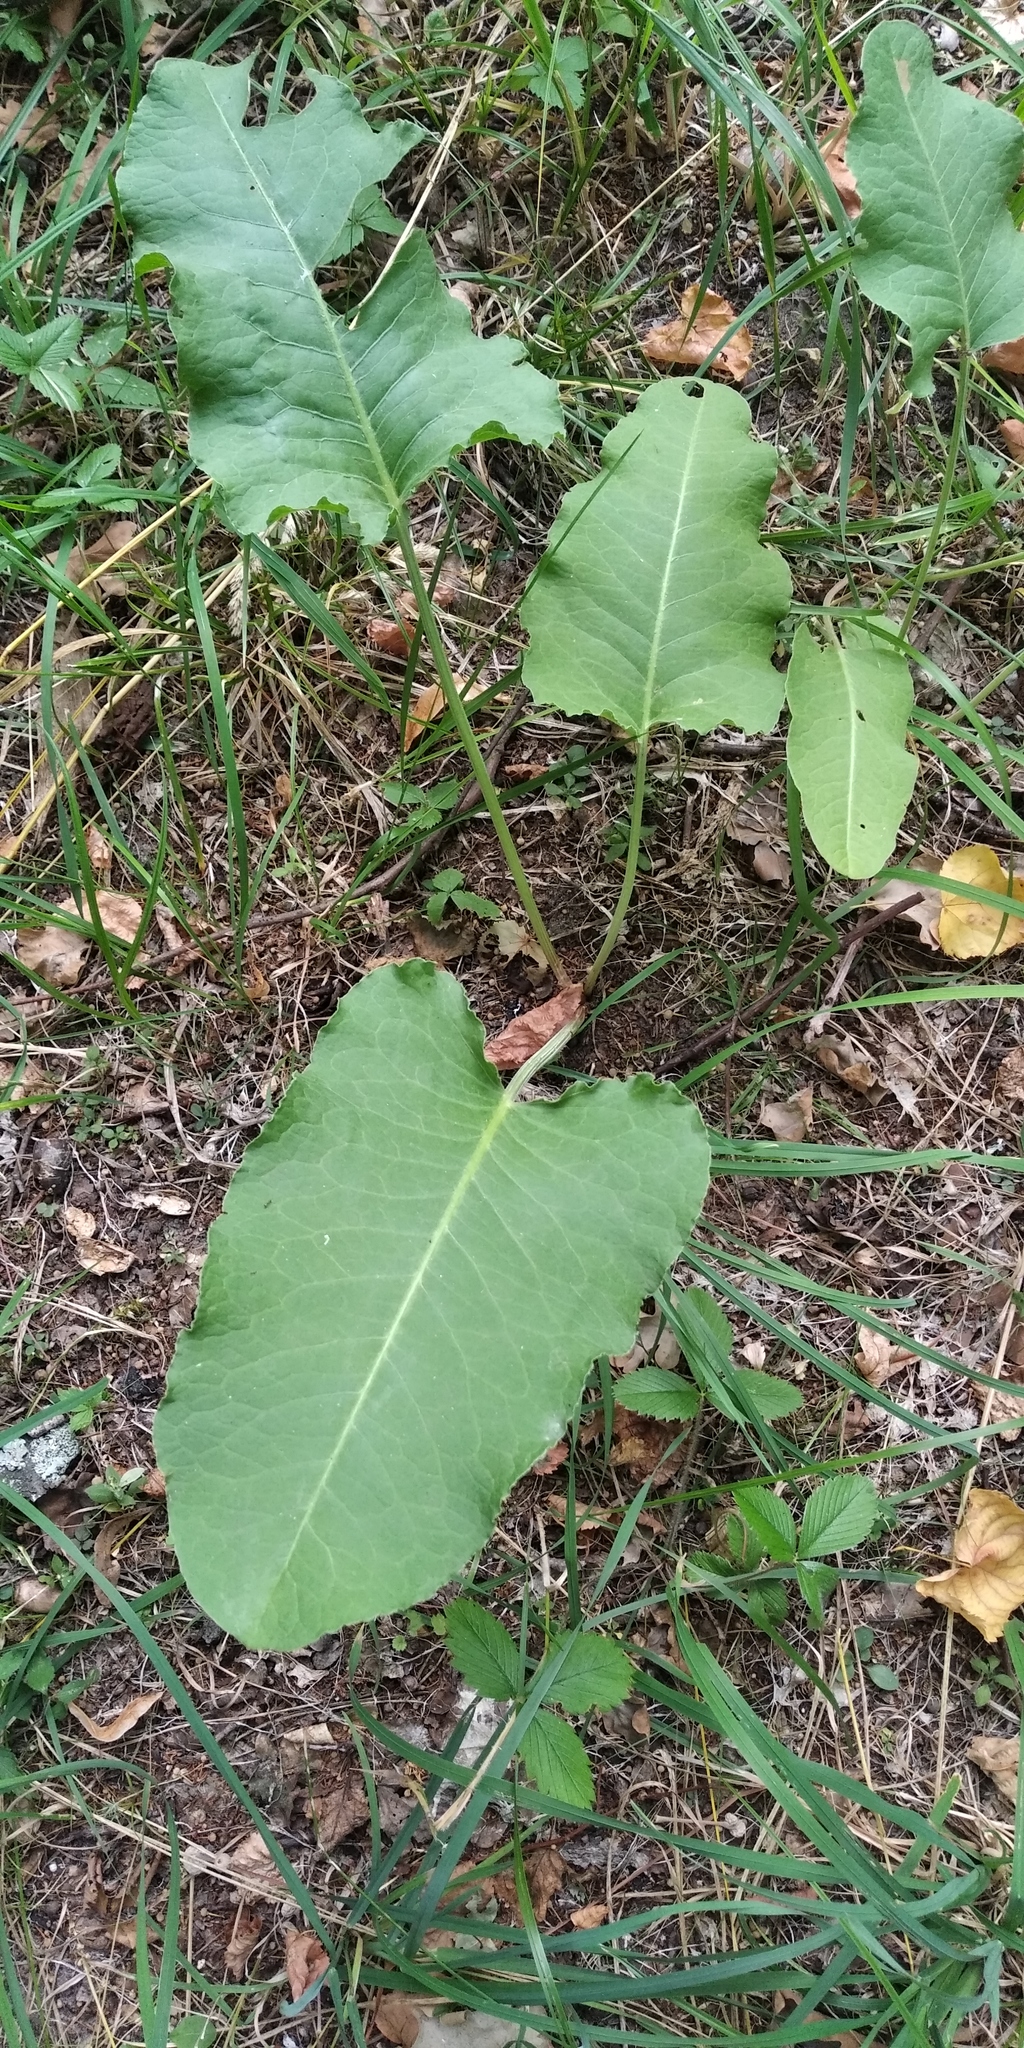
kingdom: Plantae
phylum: Tracheophyta
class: Magnoliopsida
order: Caryophyllales
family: Polygonaceae
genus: Rumex
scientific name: Rumex obtusifolius
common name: Bitter dock
